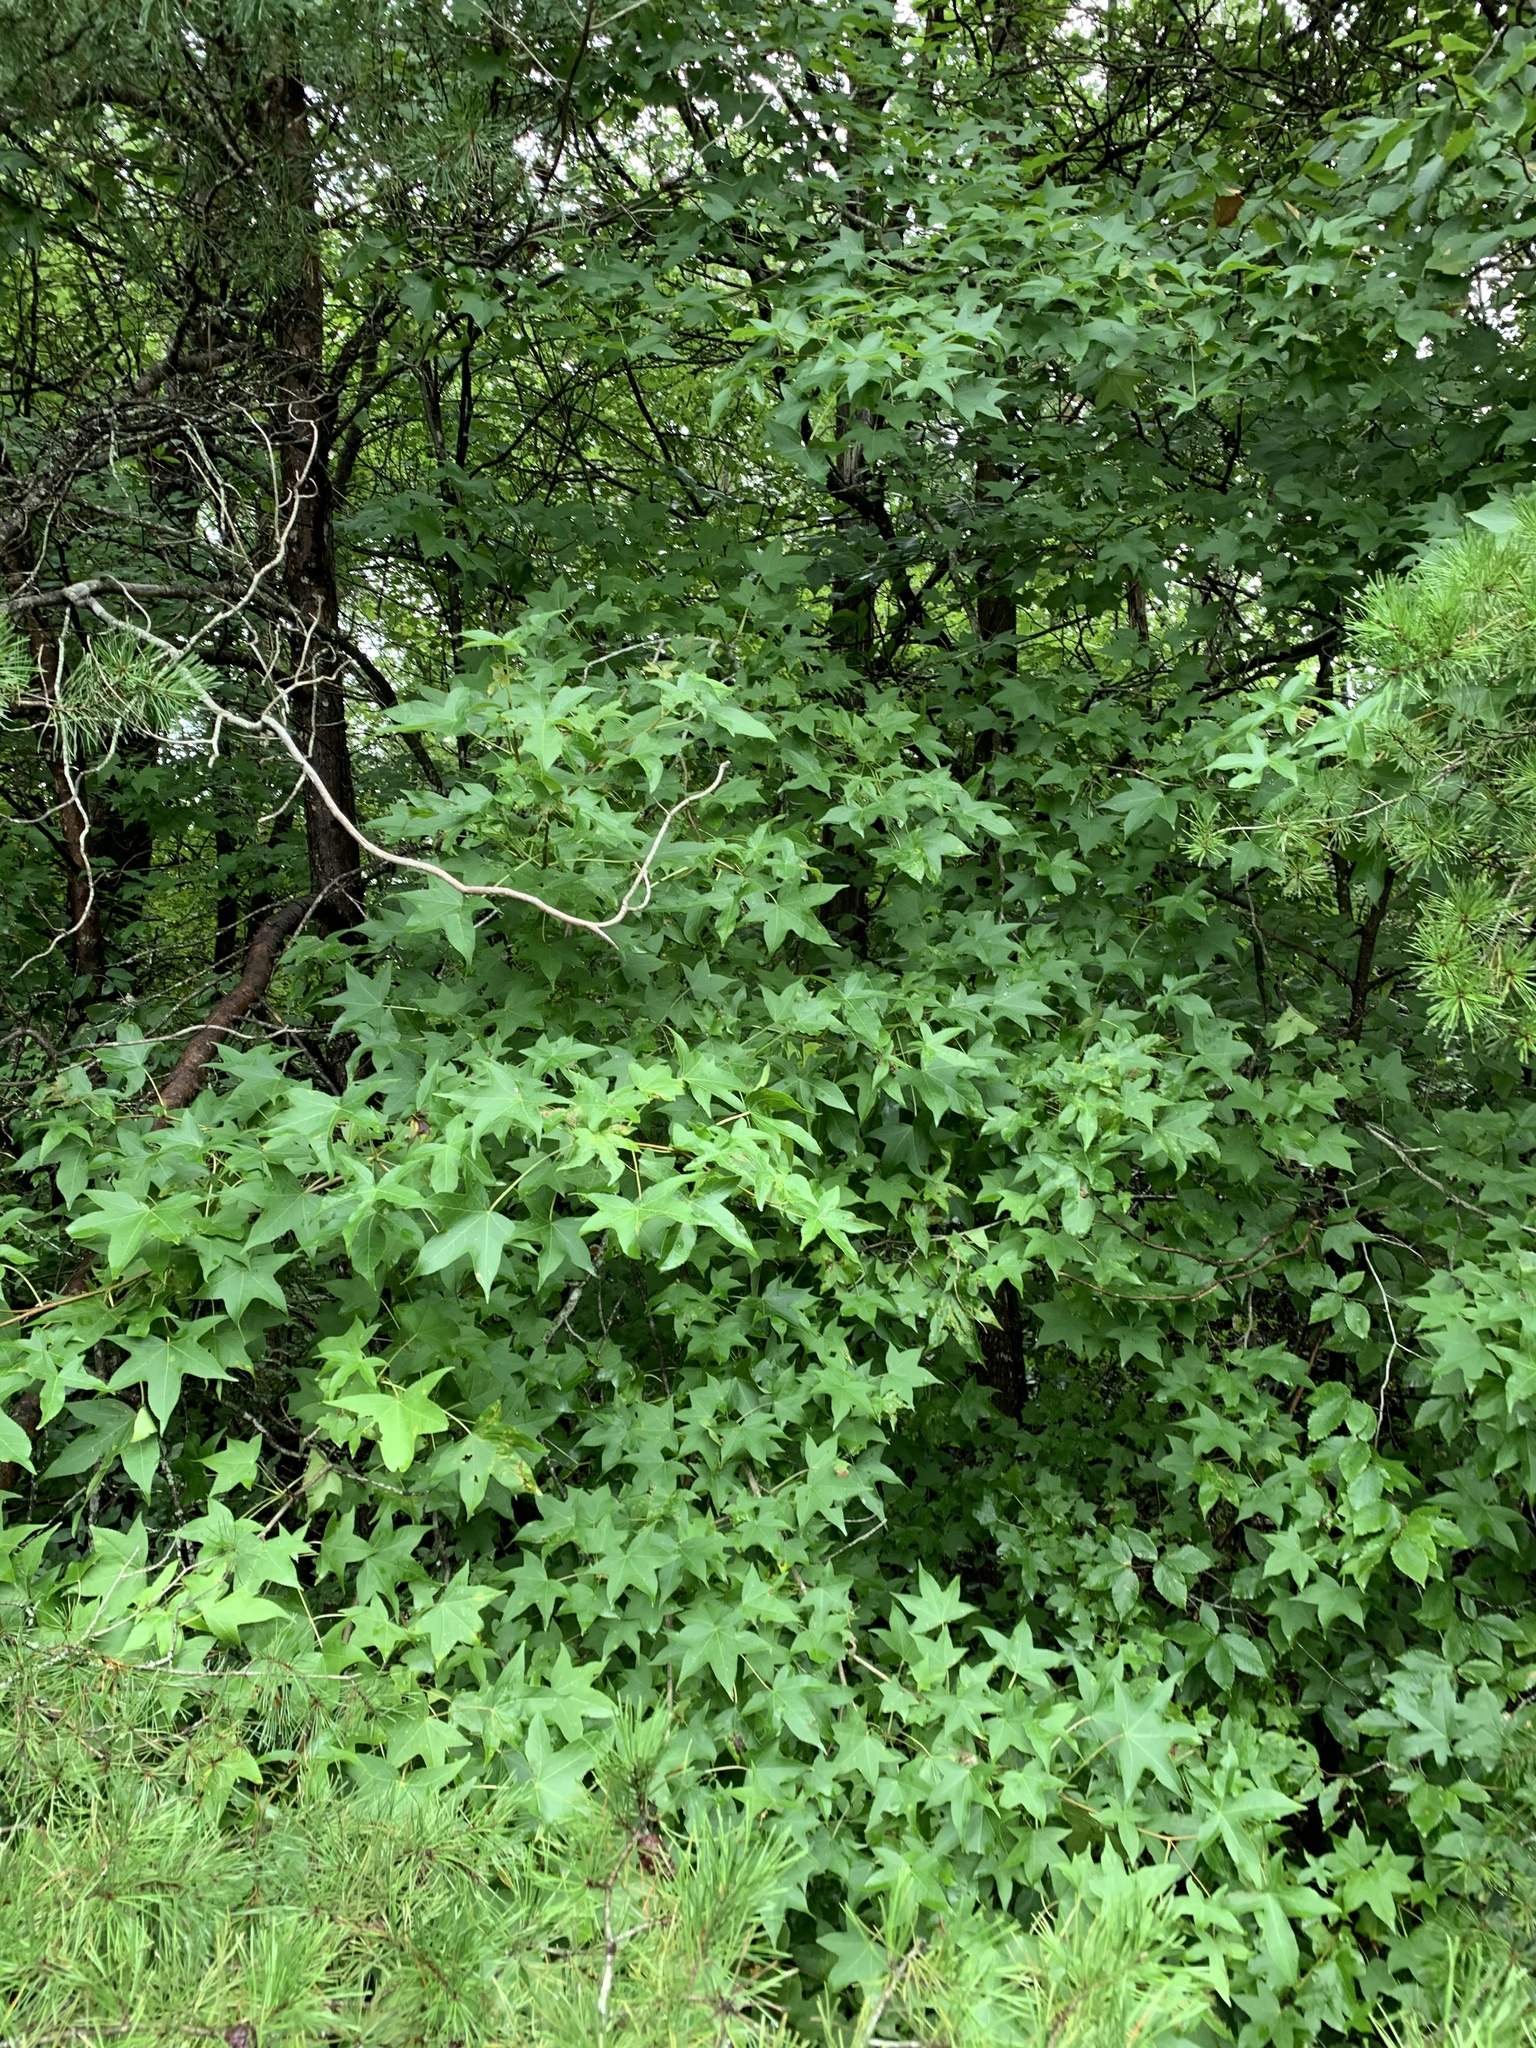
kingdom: Plantae
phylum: Tracheophyta
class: Magnoliopsida
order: Saxifragales
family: Altingiaceae
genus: Liquidambar
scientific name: Liquidambar styraciflua
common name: Sweet gum
